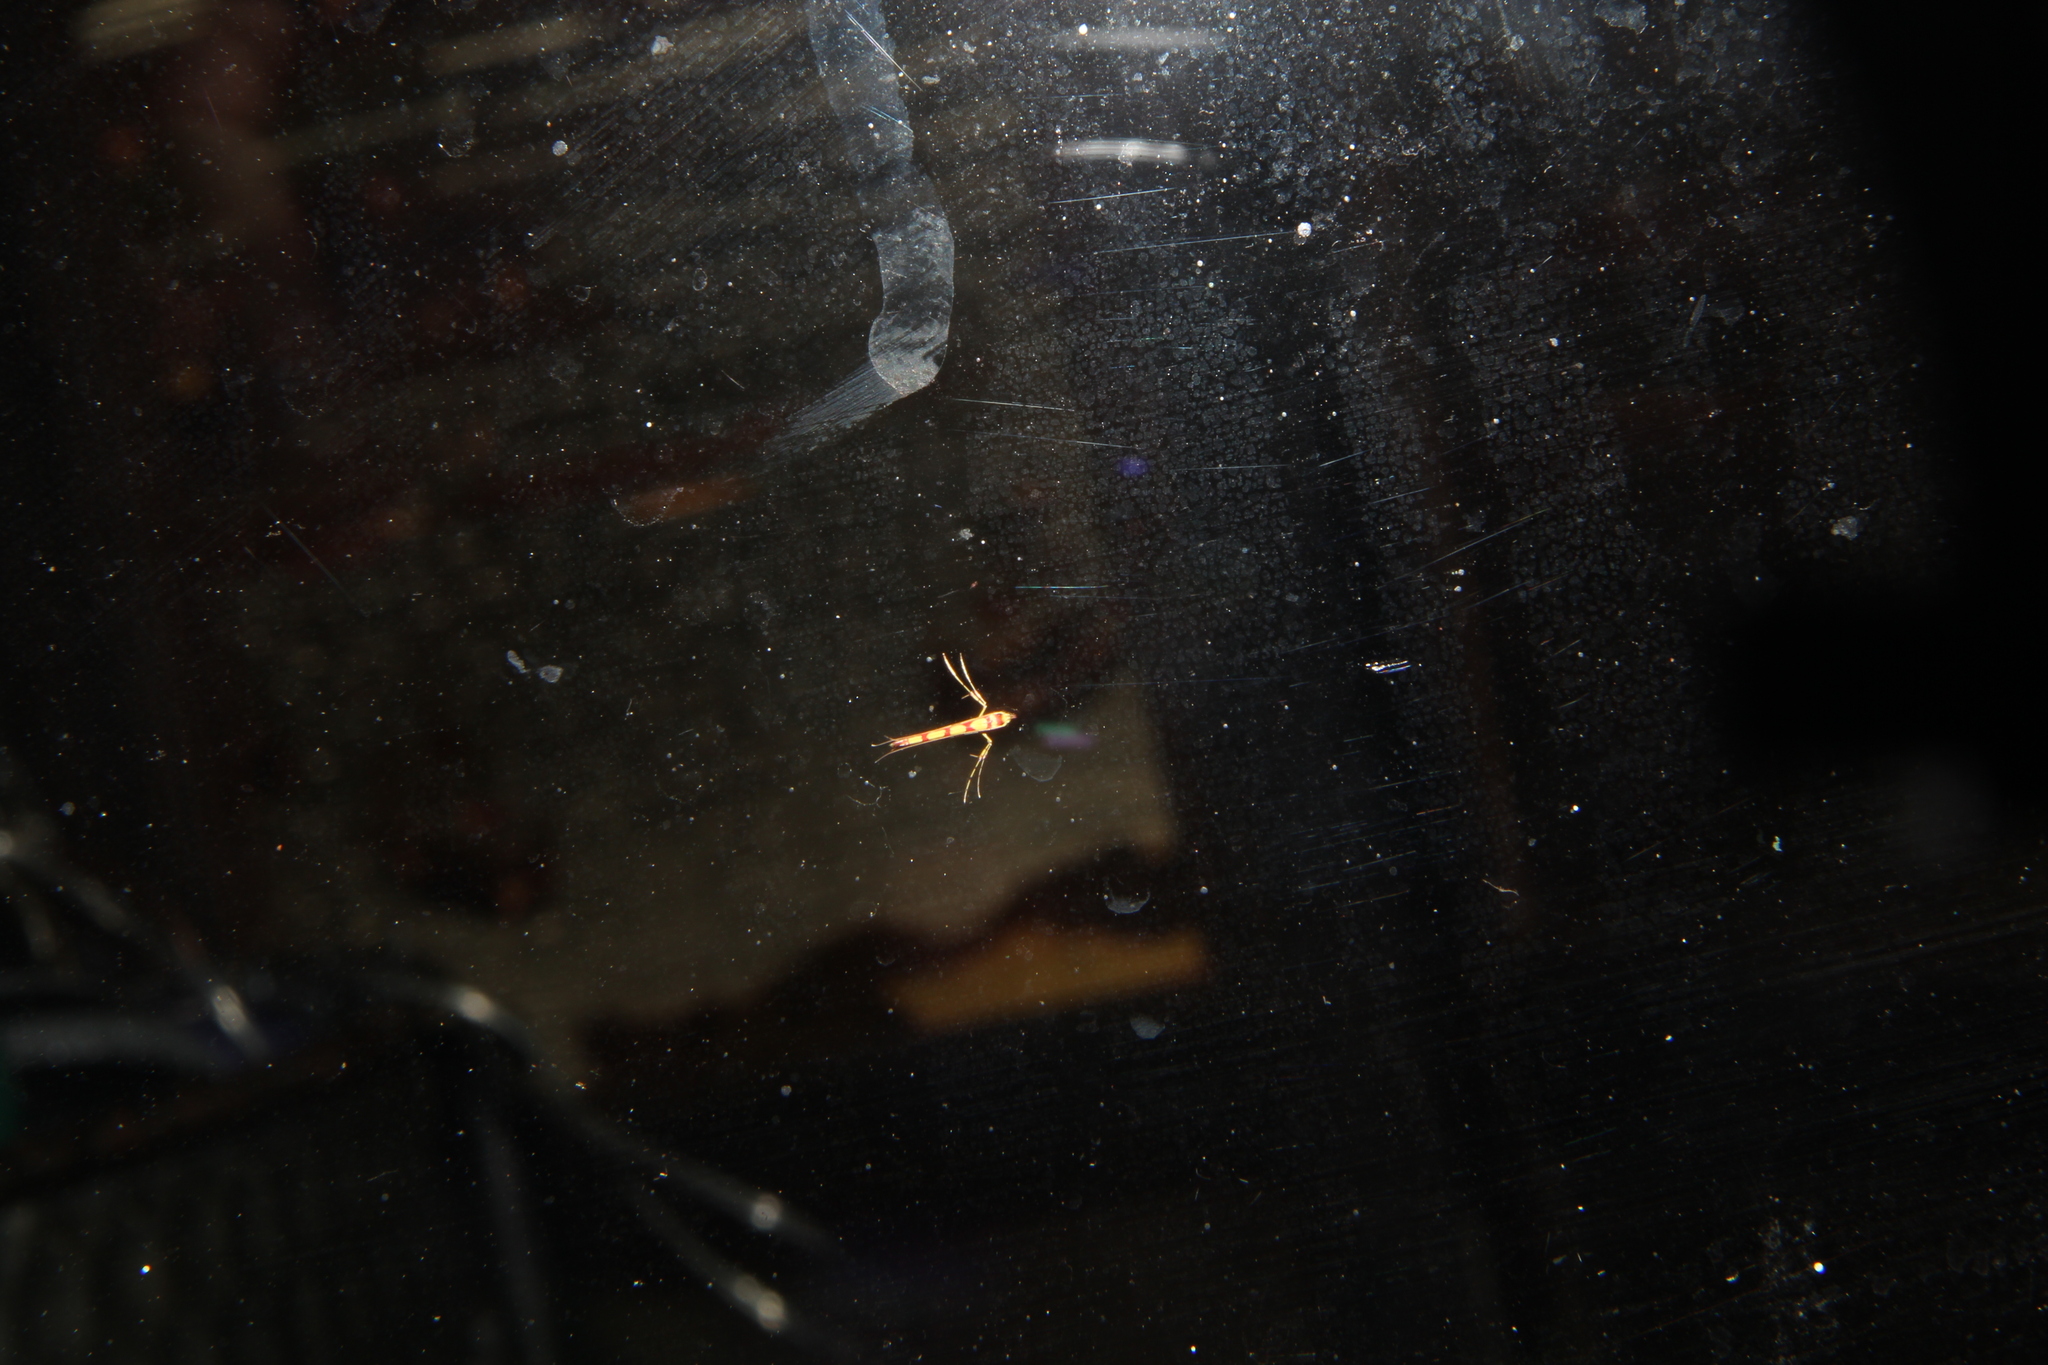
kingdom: Animalia
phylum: Arthropoda
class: Insecta
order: Lepidoptera
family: Gracillariidae
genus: Macarostola
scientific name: Macarostola miniella
